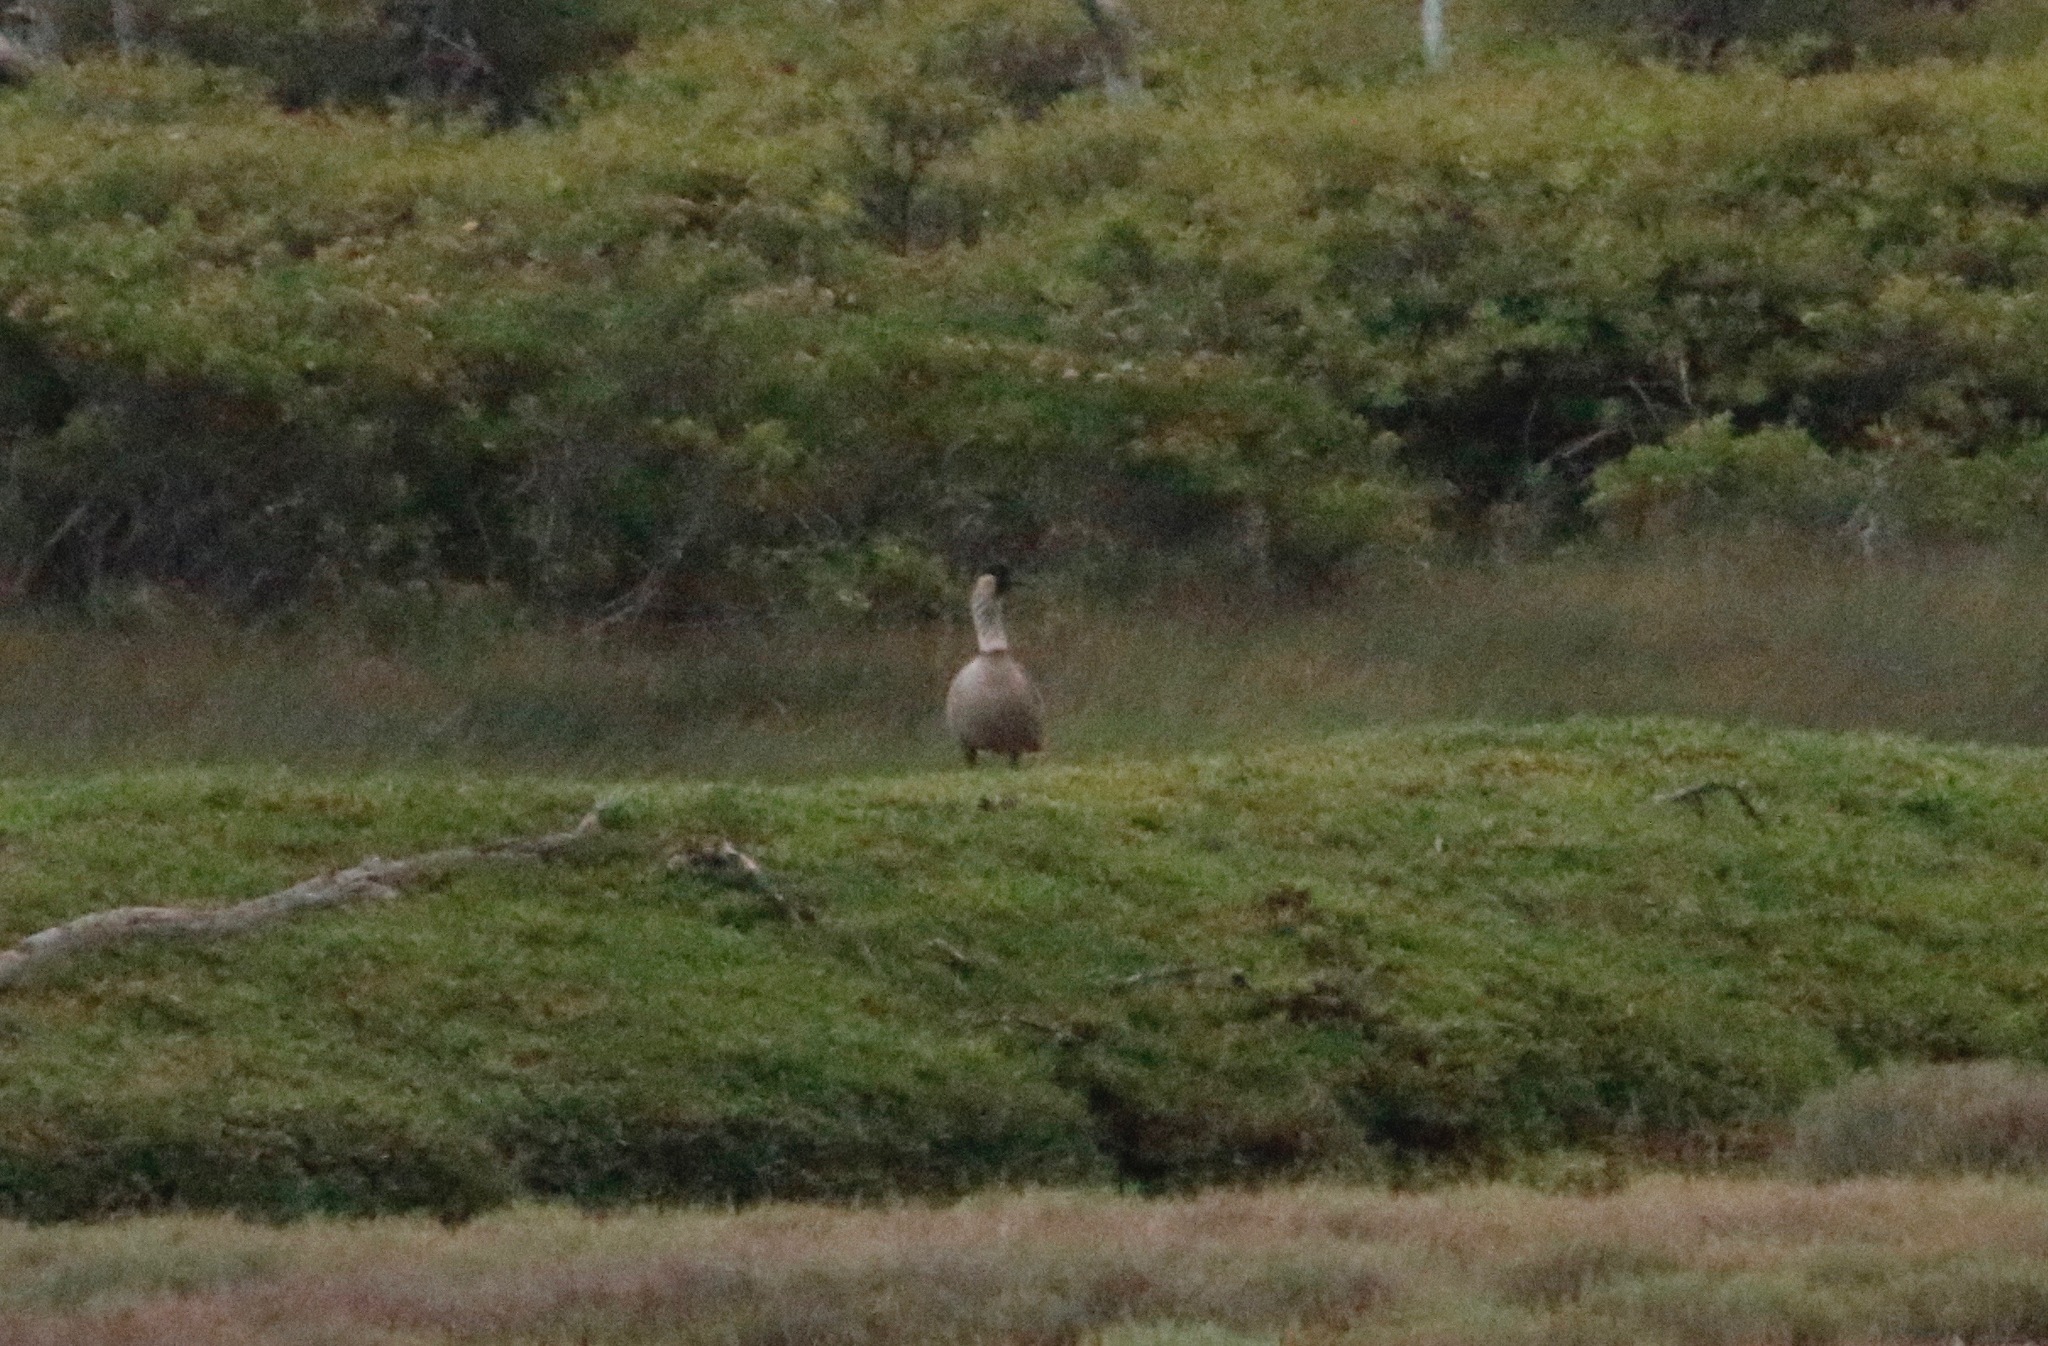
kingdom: Animalia
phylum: Chordata
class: Aves
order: Anseriformes
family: Anatidae
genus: Branta
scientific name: Branta sandvicensis
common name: Nene
